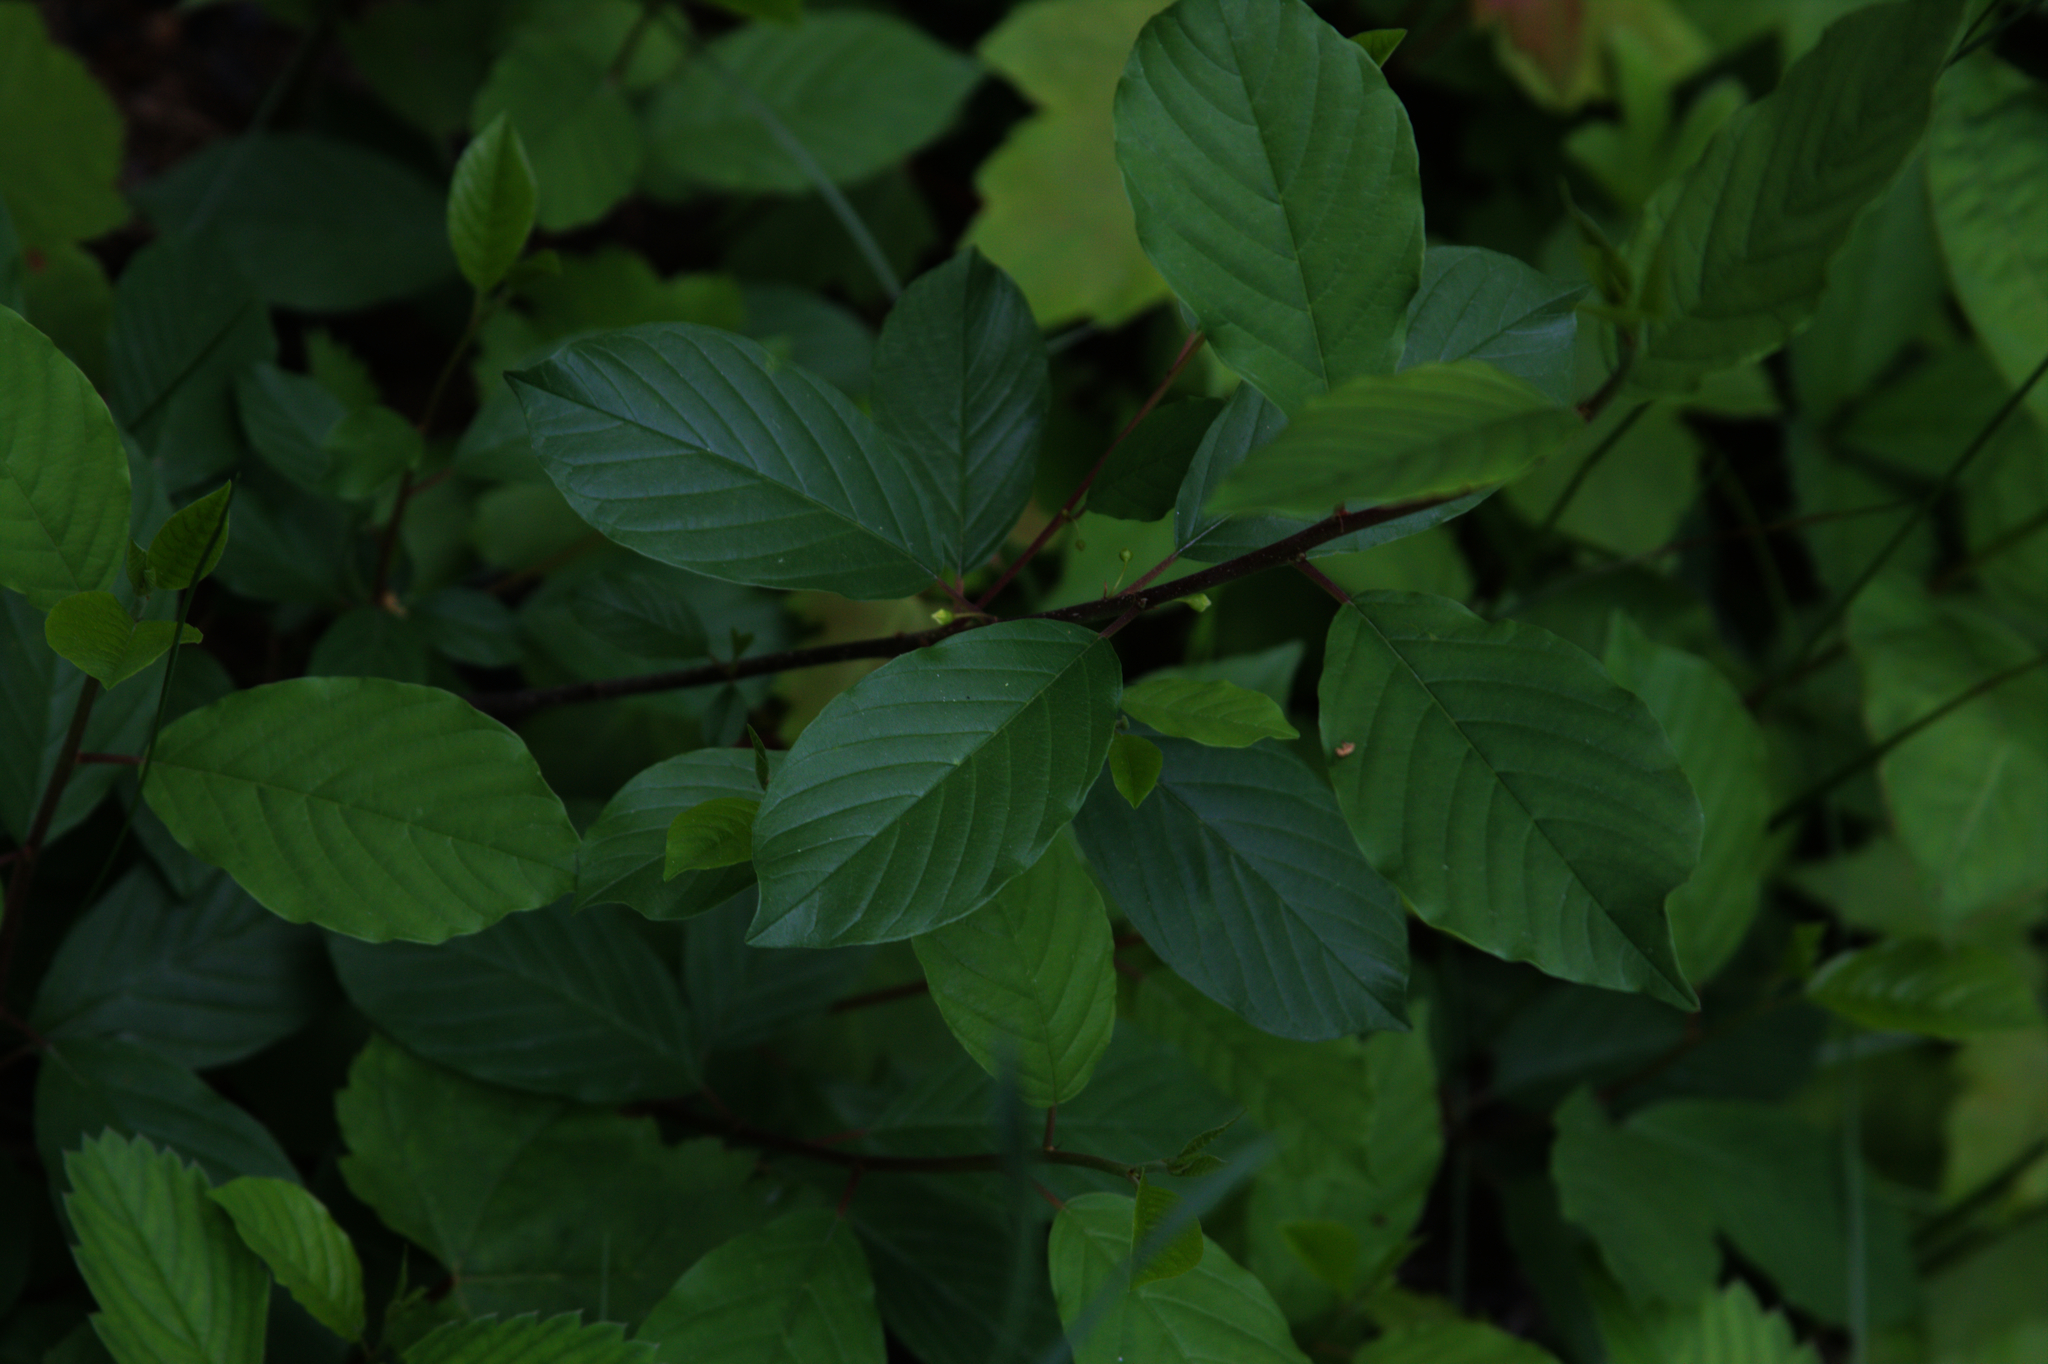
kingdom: Plantae
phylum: Tracheophyta
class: Magnoliopsida
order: Rosales
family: Rhamnaceae
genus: Frangula
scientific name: Frangula alnus
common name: Alder buckthorn
